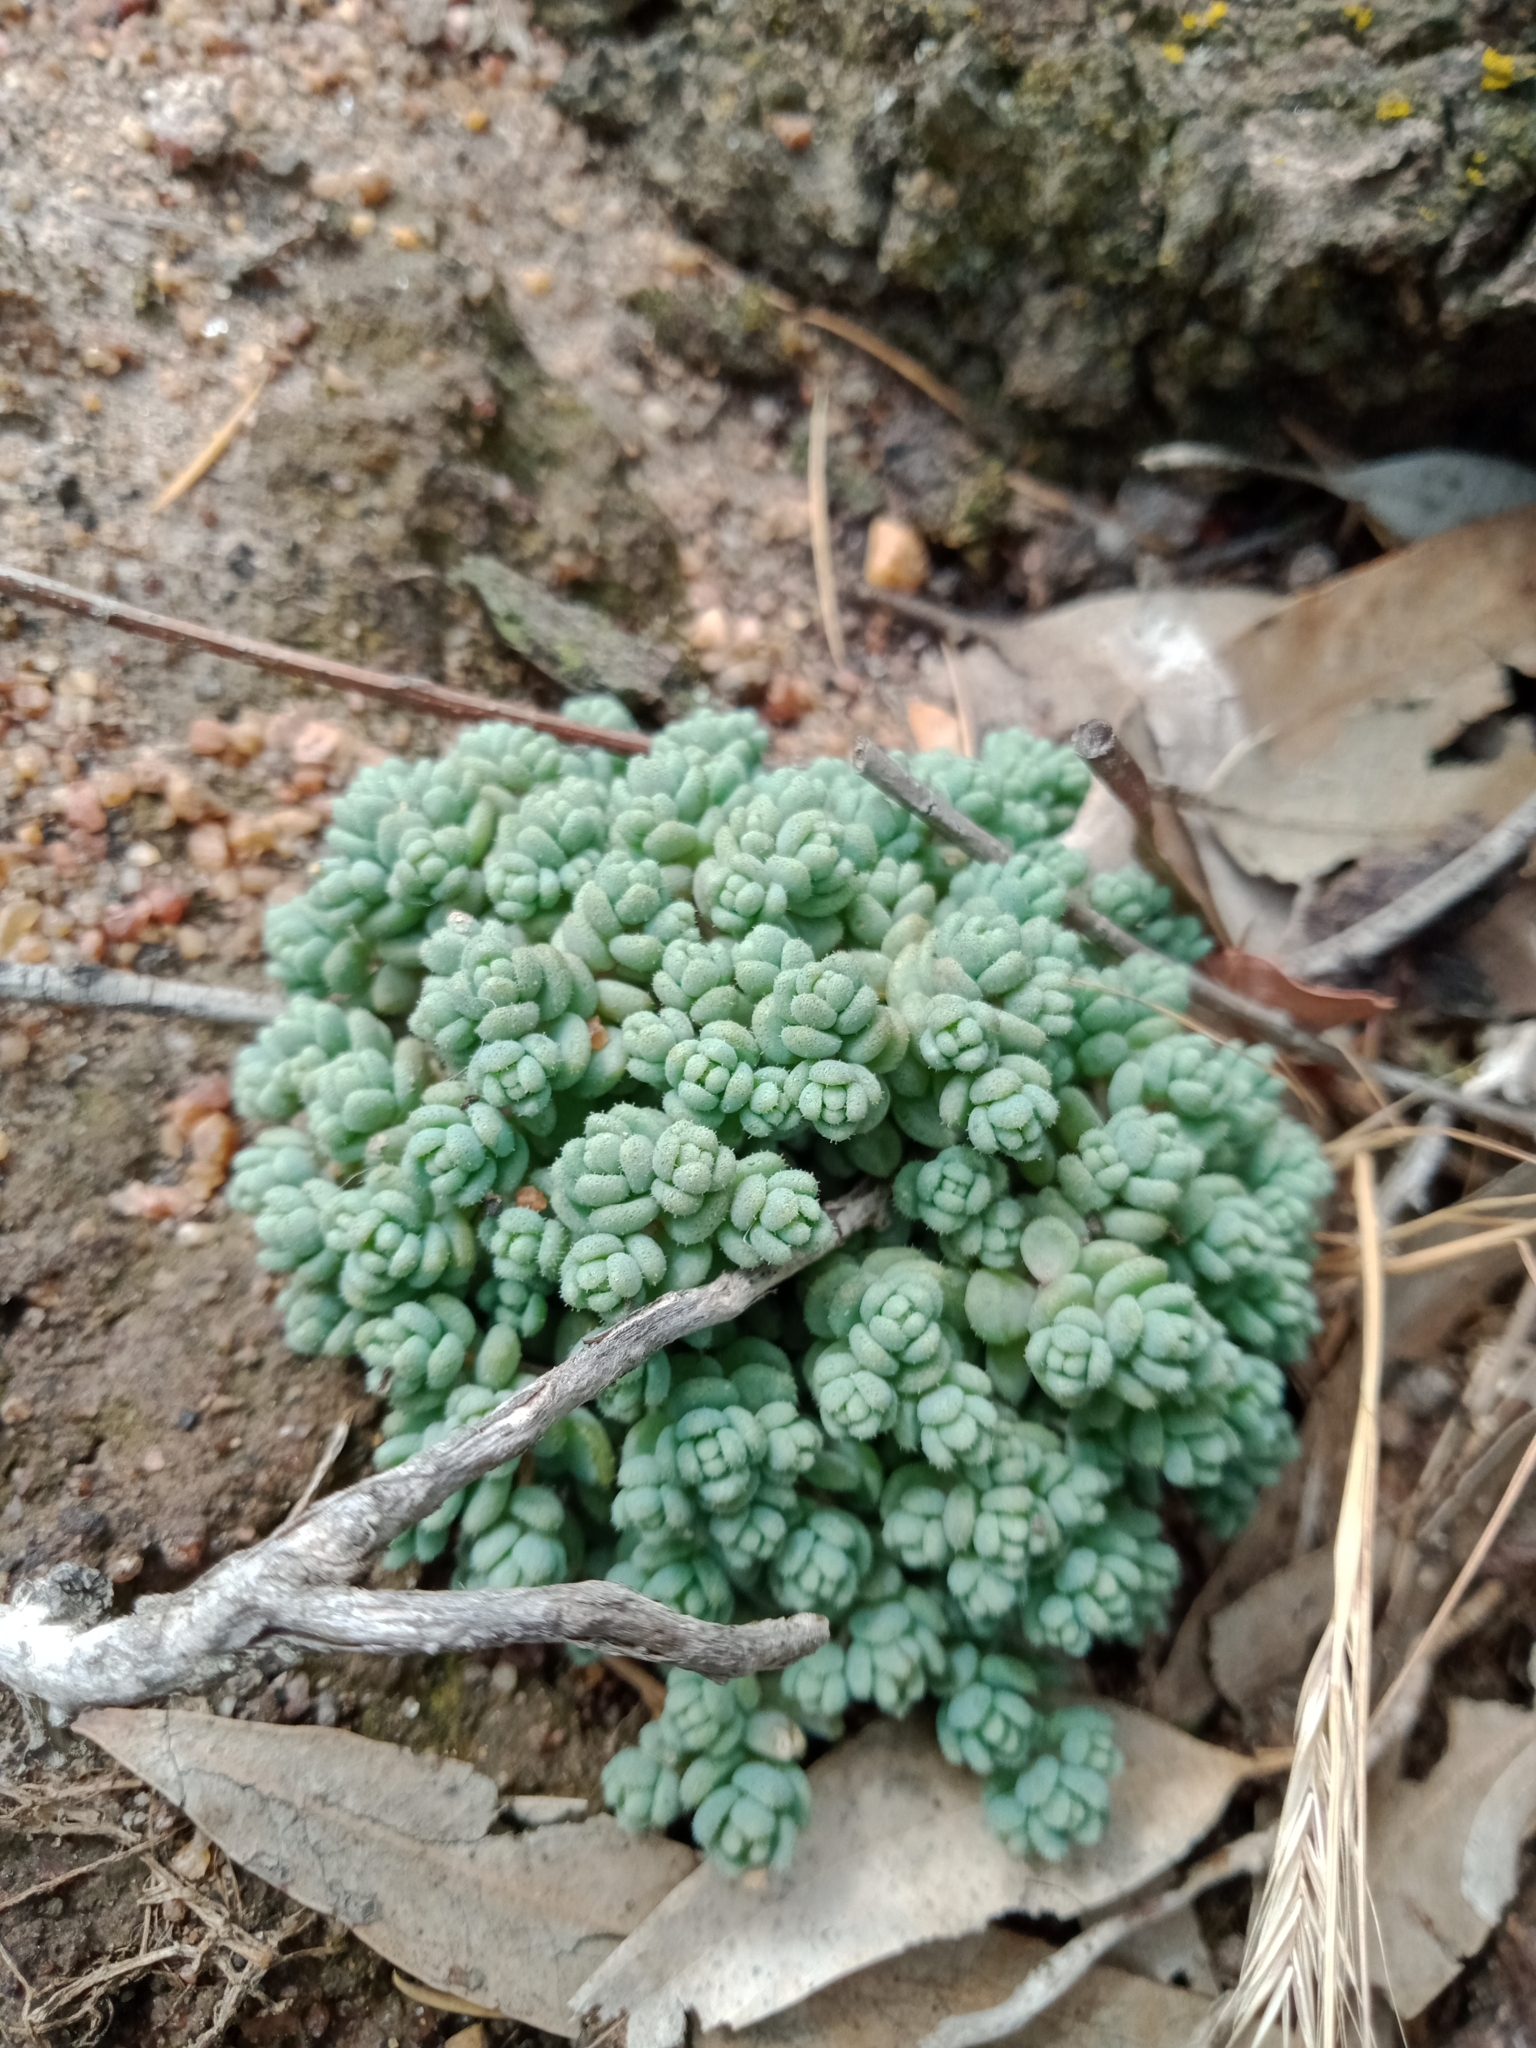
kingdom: Plantae
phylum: Tracheophyta
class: Magnoliopsida
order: Saxifragales
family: Crassulaceae
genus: Sedum
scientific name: Sedum dasyphyllum
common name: Thick-leaf stonecrop
